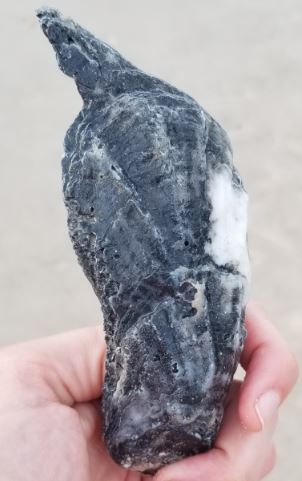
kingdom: Animalia
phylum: Mollusca
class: Bivalvia
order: Ostreida
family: Ostreidae
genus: Crassostrea
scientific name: Crassostrea virginica
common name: American oyster
